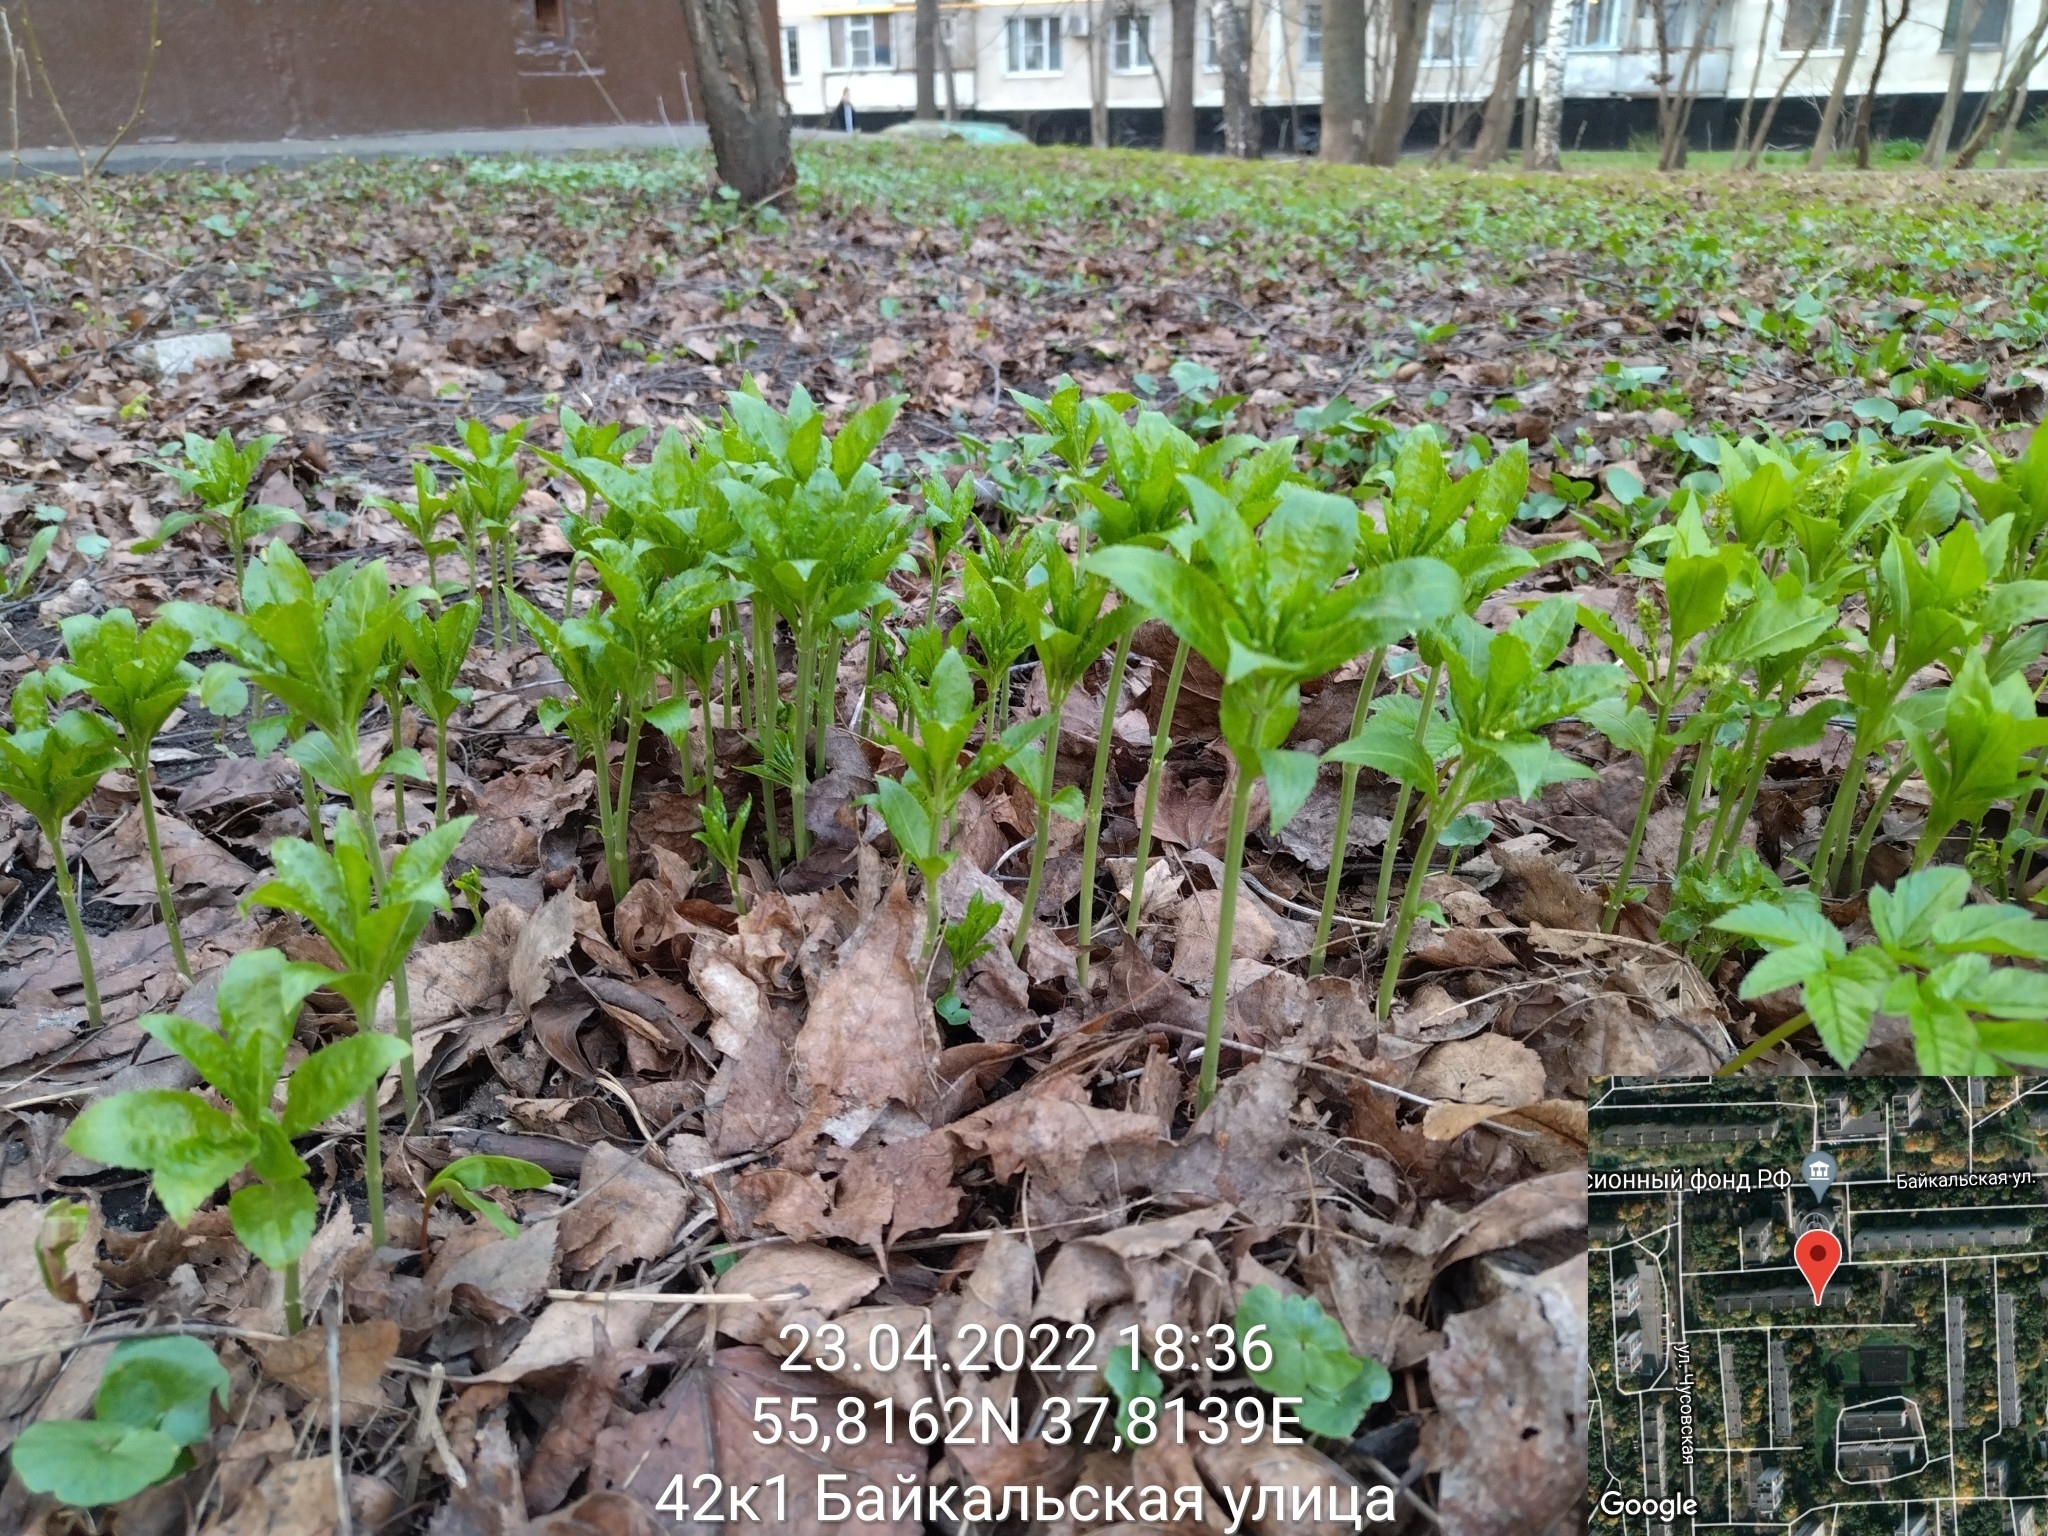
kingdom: Plantae
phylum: Tracheophyta
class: Magnoliopsida
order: Malpighiales
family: Euphorbiaceae
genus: Mercurialis
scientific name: Mercurialis perennis
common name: Dog mercury
